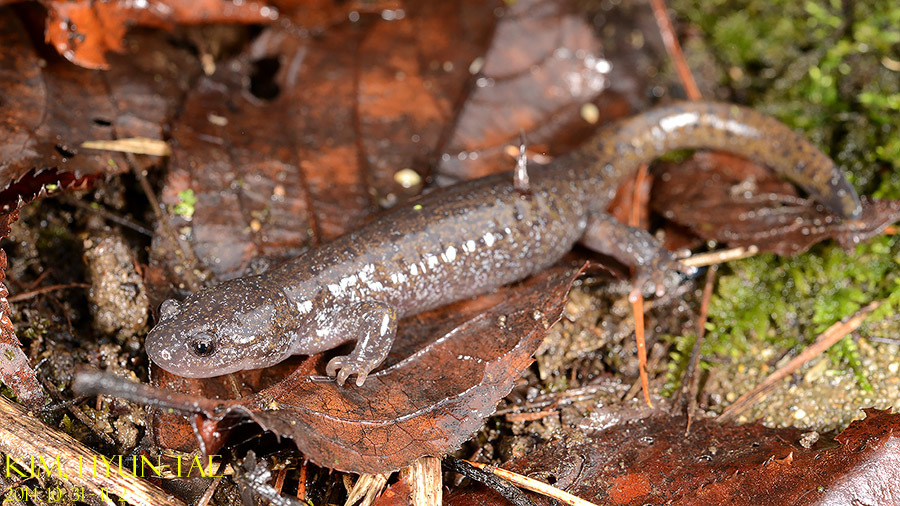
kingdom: Animalia
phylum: Chordata
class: Amphibia
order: Caudata
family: Hynobiidae
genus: Hynobius
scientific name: Hynobius leechii
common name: Gensan salamander
